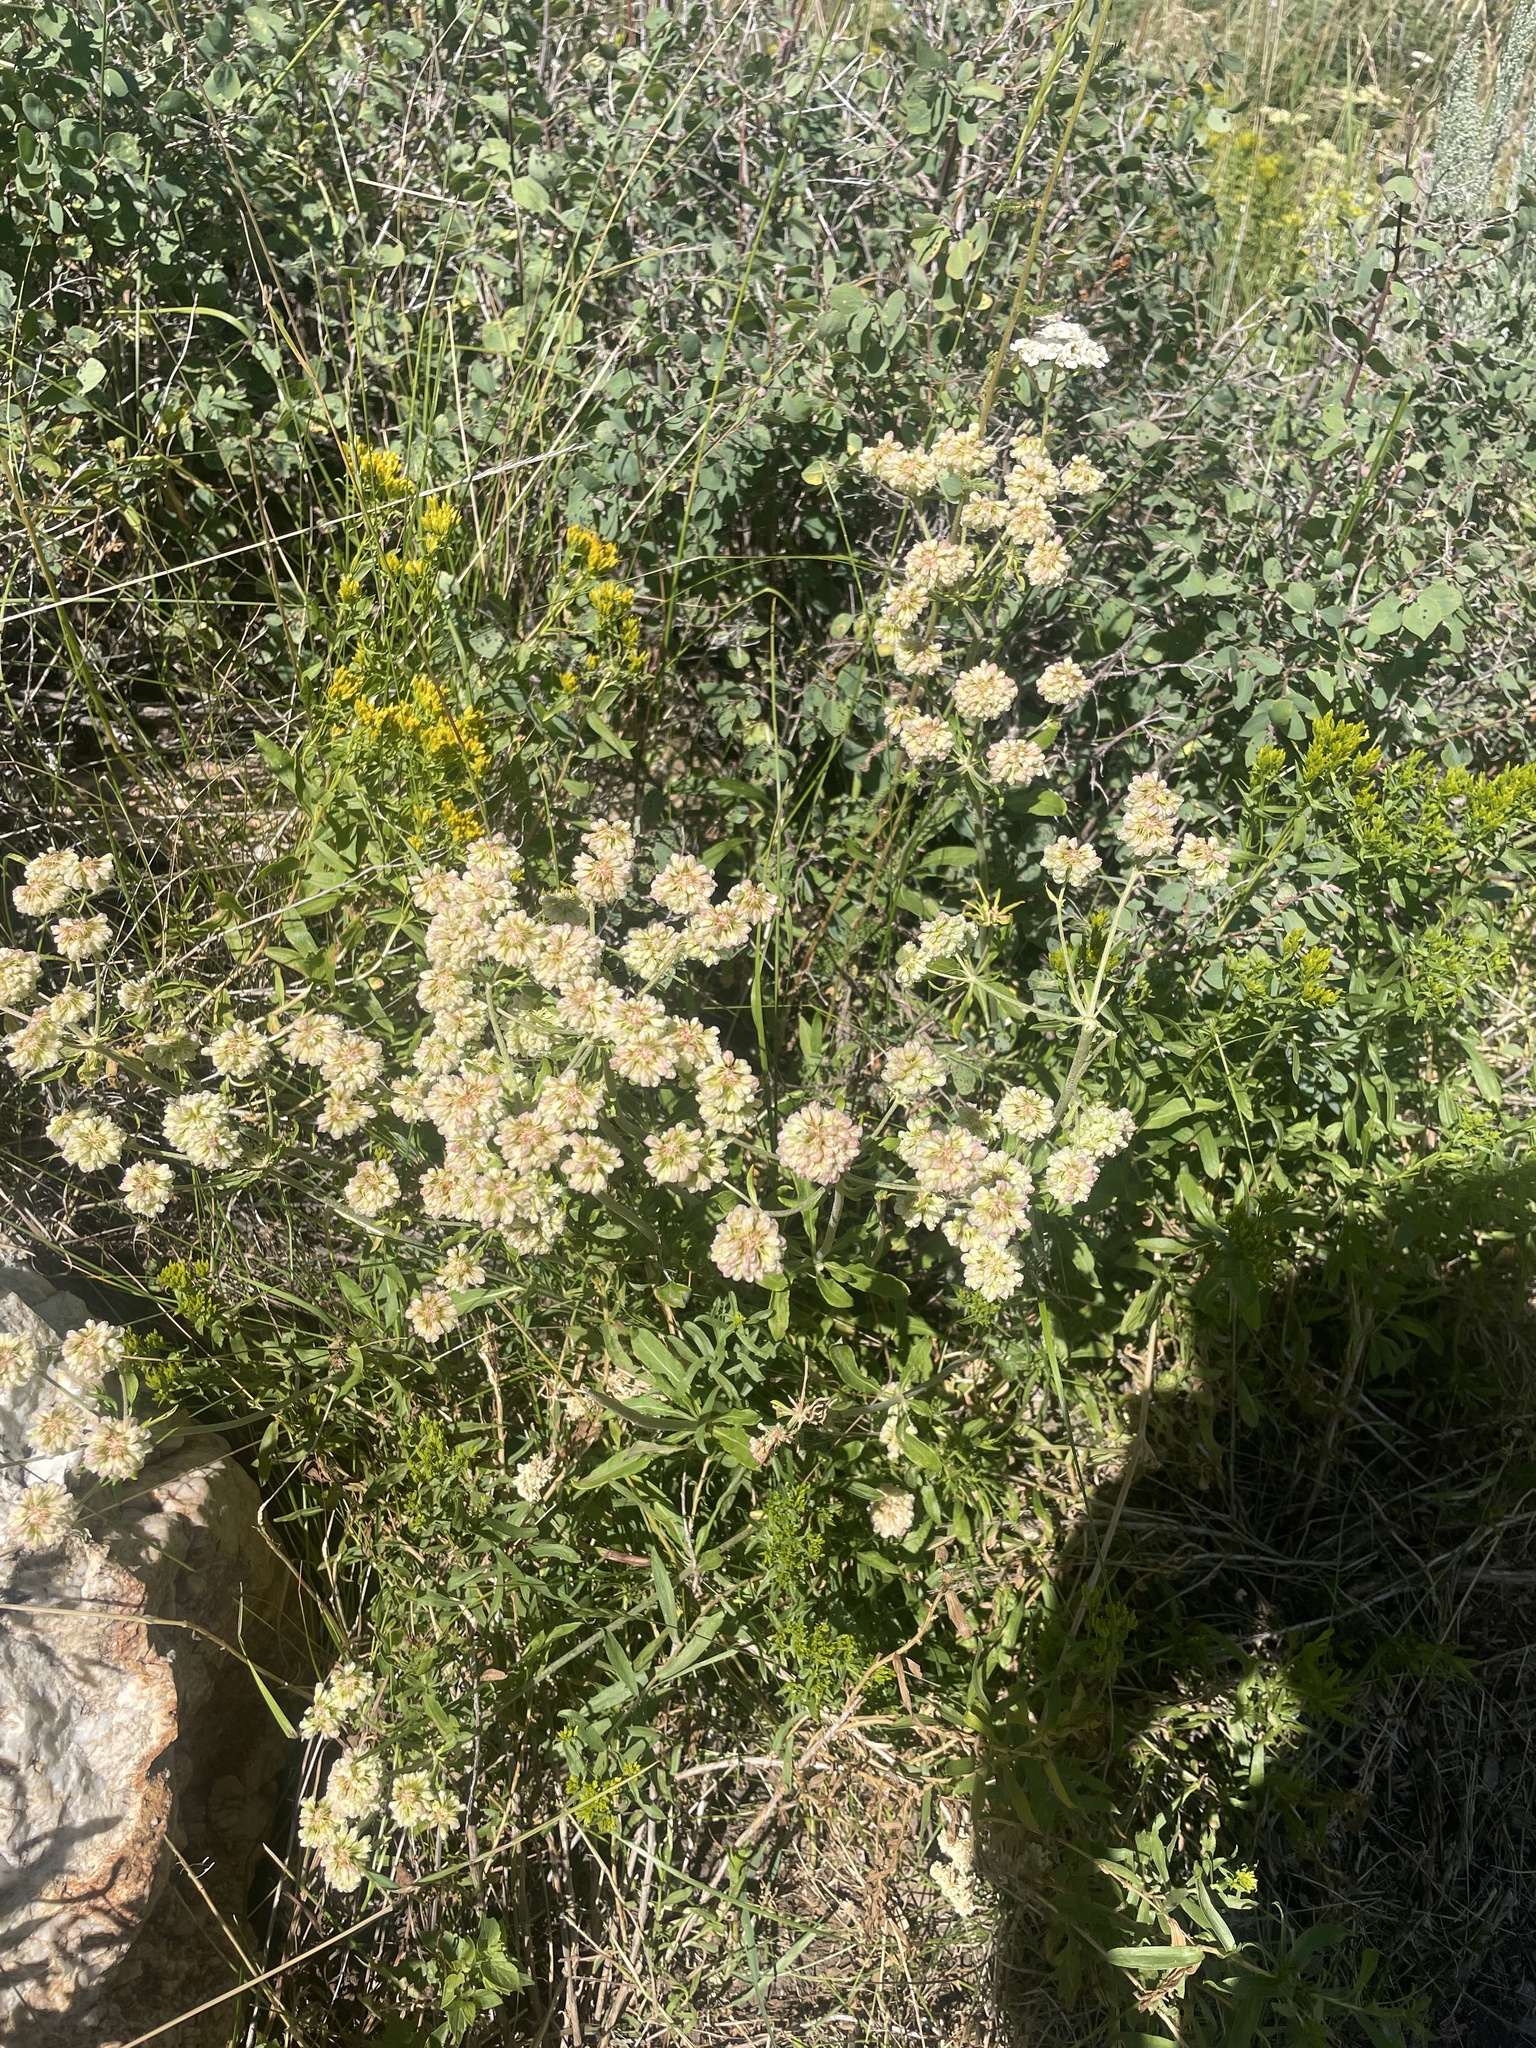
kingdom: Plantae
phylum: Tracheophyta
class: Magnoliopsida
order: Caryophyllales
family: Polygonaceae
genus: Eriogonum
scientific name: Eriogonum heracleoides
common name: Wyeth's buckwheat
